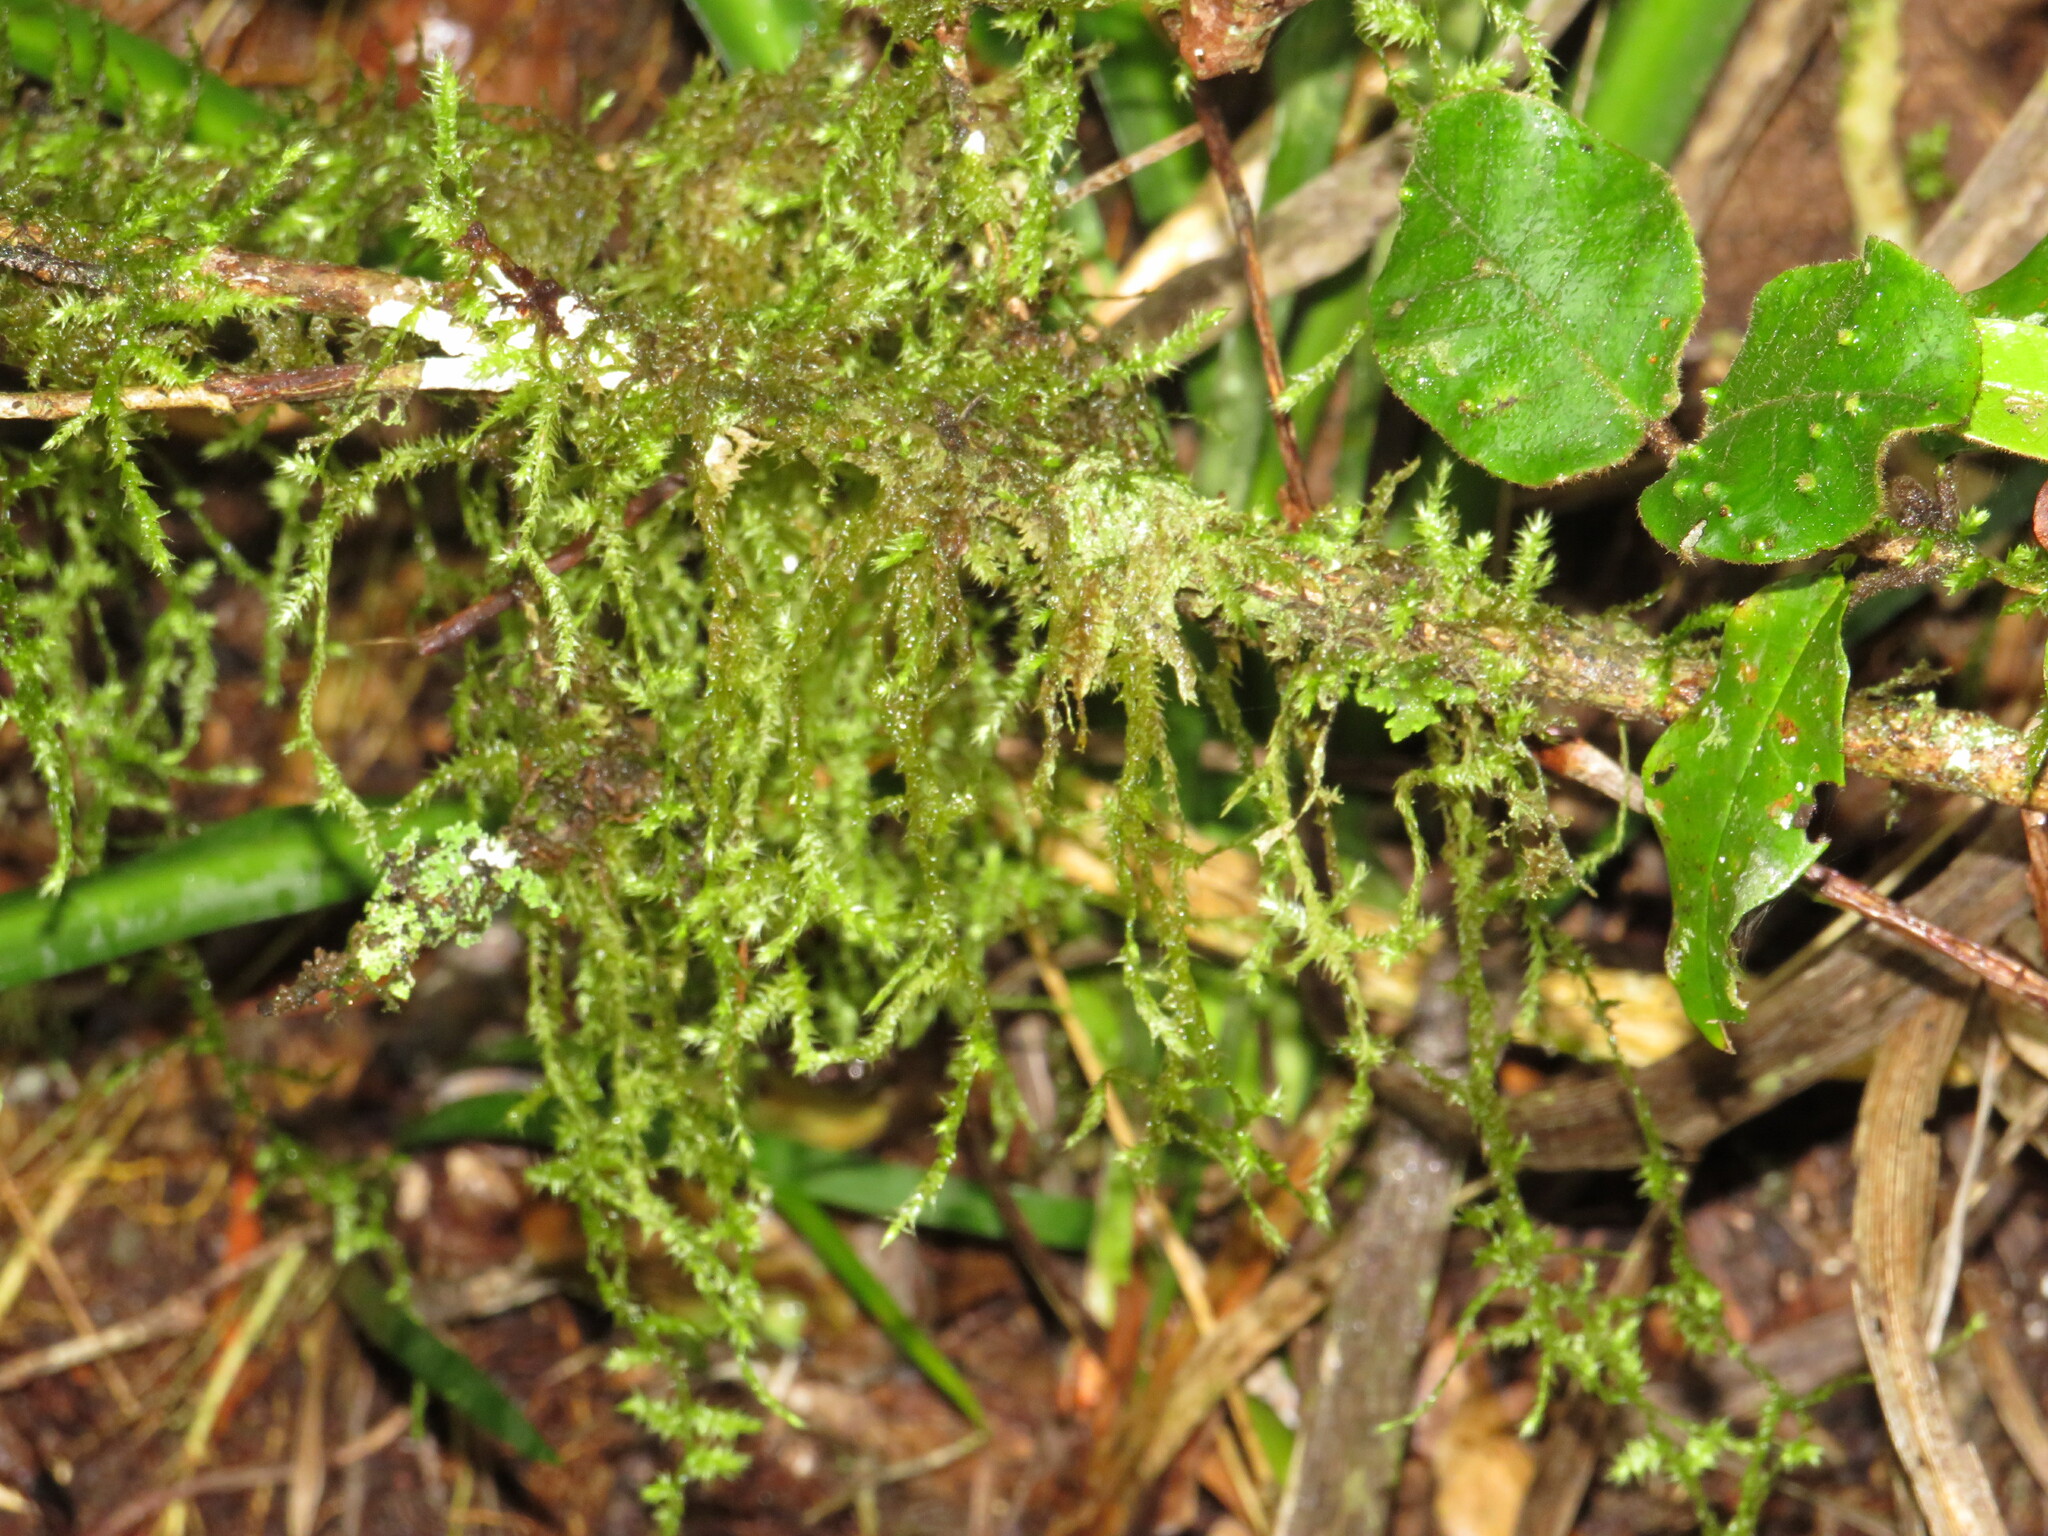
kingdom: Plantae
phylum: Bryophyta
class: Bryopsida
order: Hypnales
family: Meteoriaceae
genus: Aerobryopsis
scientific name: Aerobryopsis capensis
